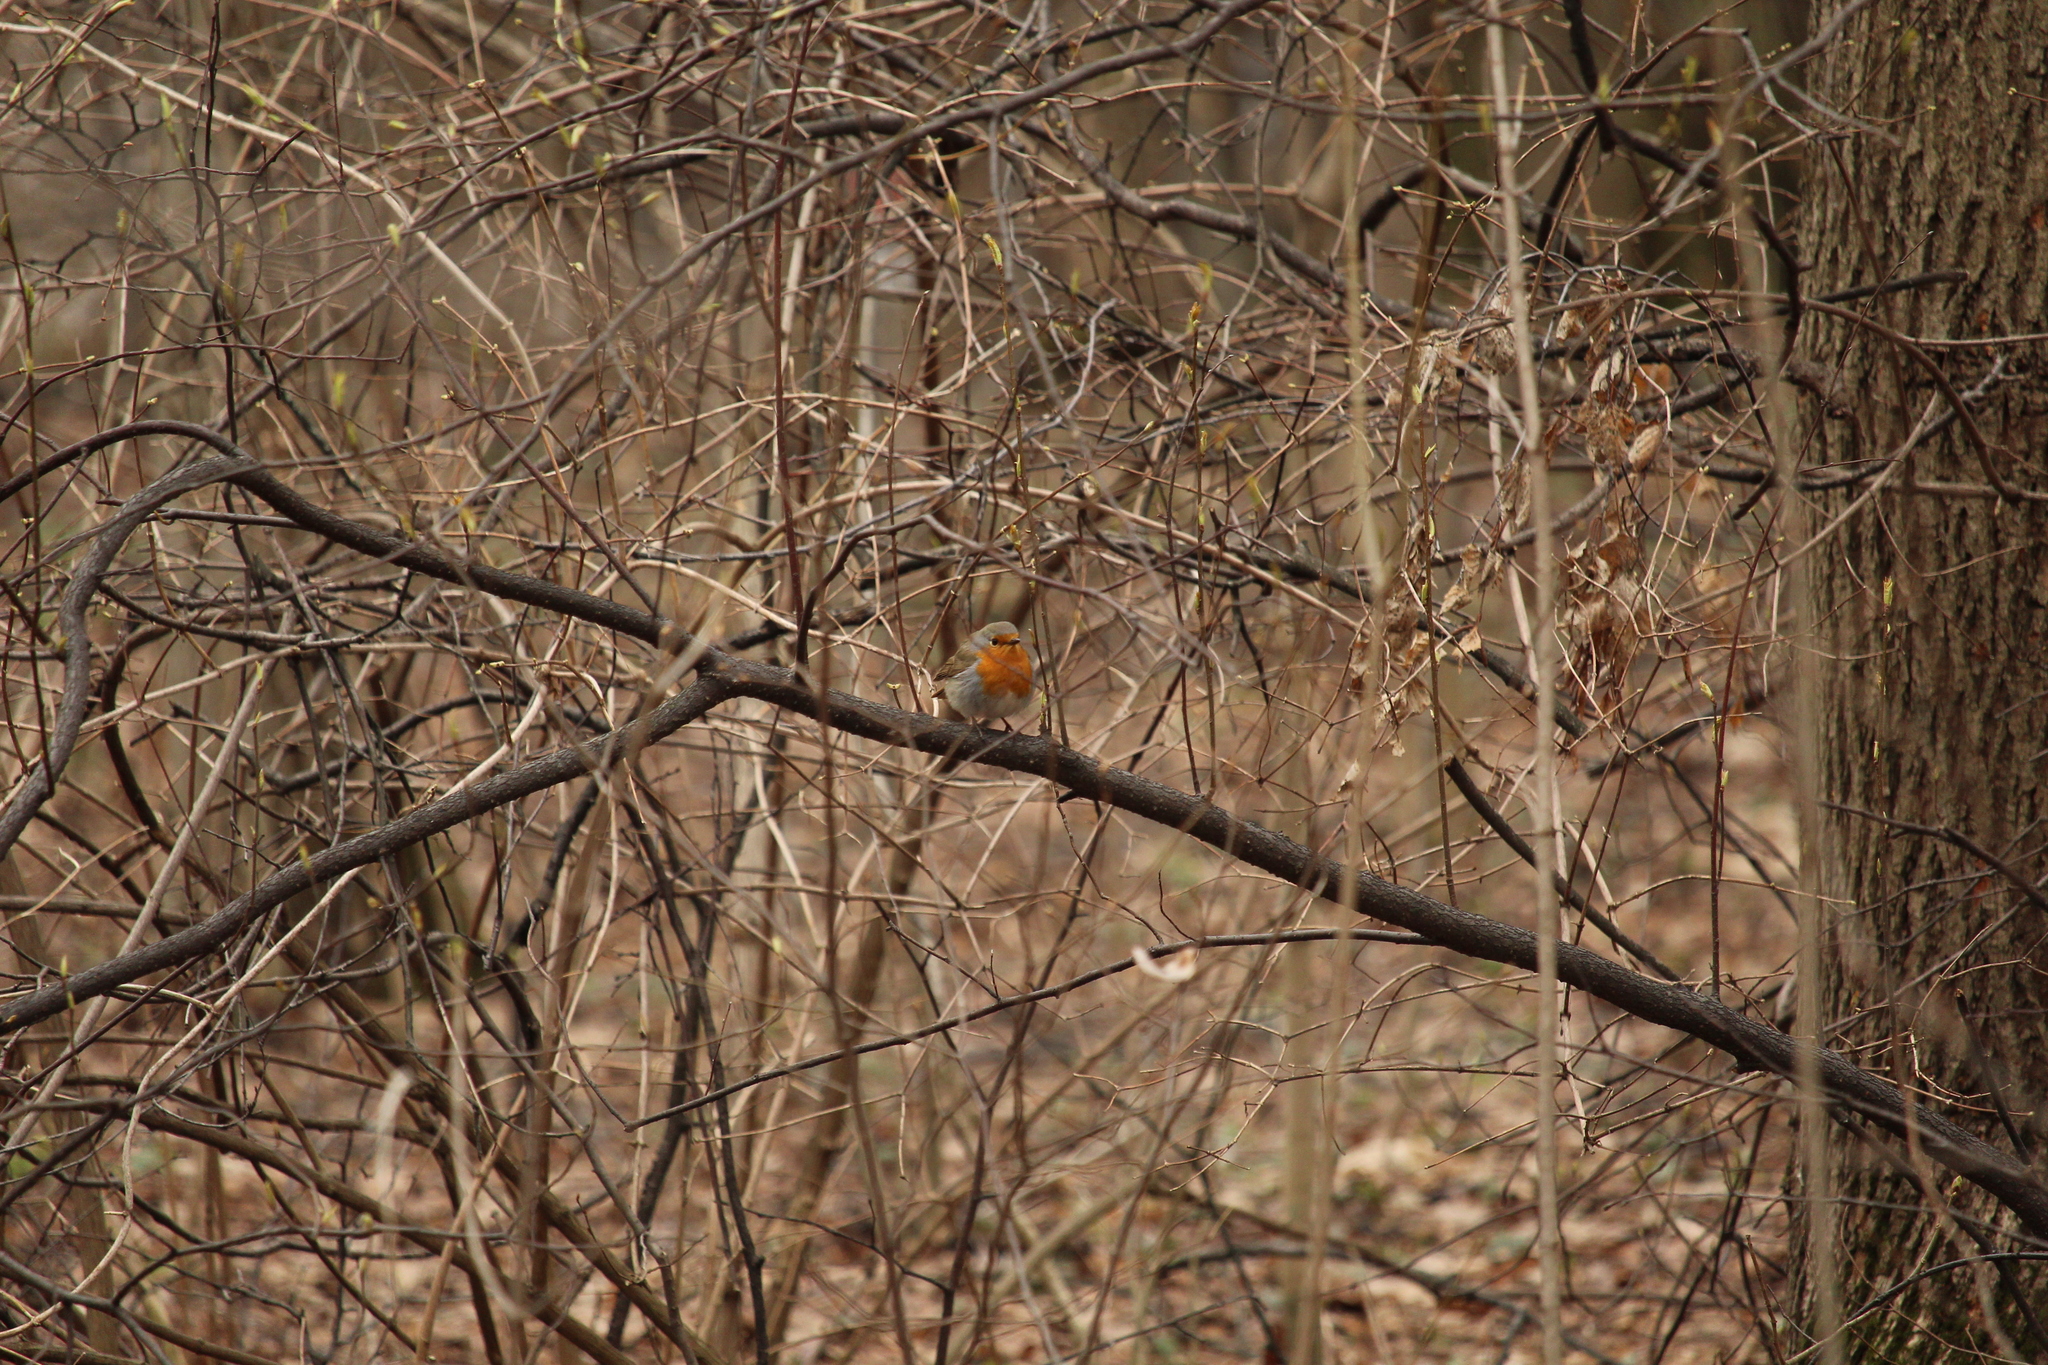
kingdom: Animalia
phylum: Chordata
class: Aves
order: Passeriformes
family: Muscicapidae
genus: Erithacus
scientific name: Erithacus rubecula
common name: European robin
